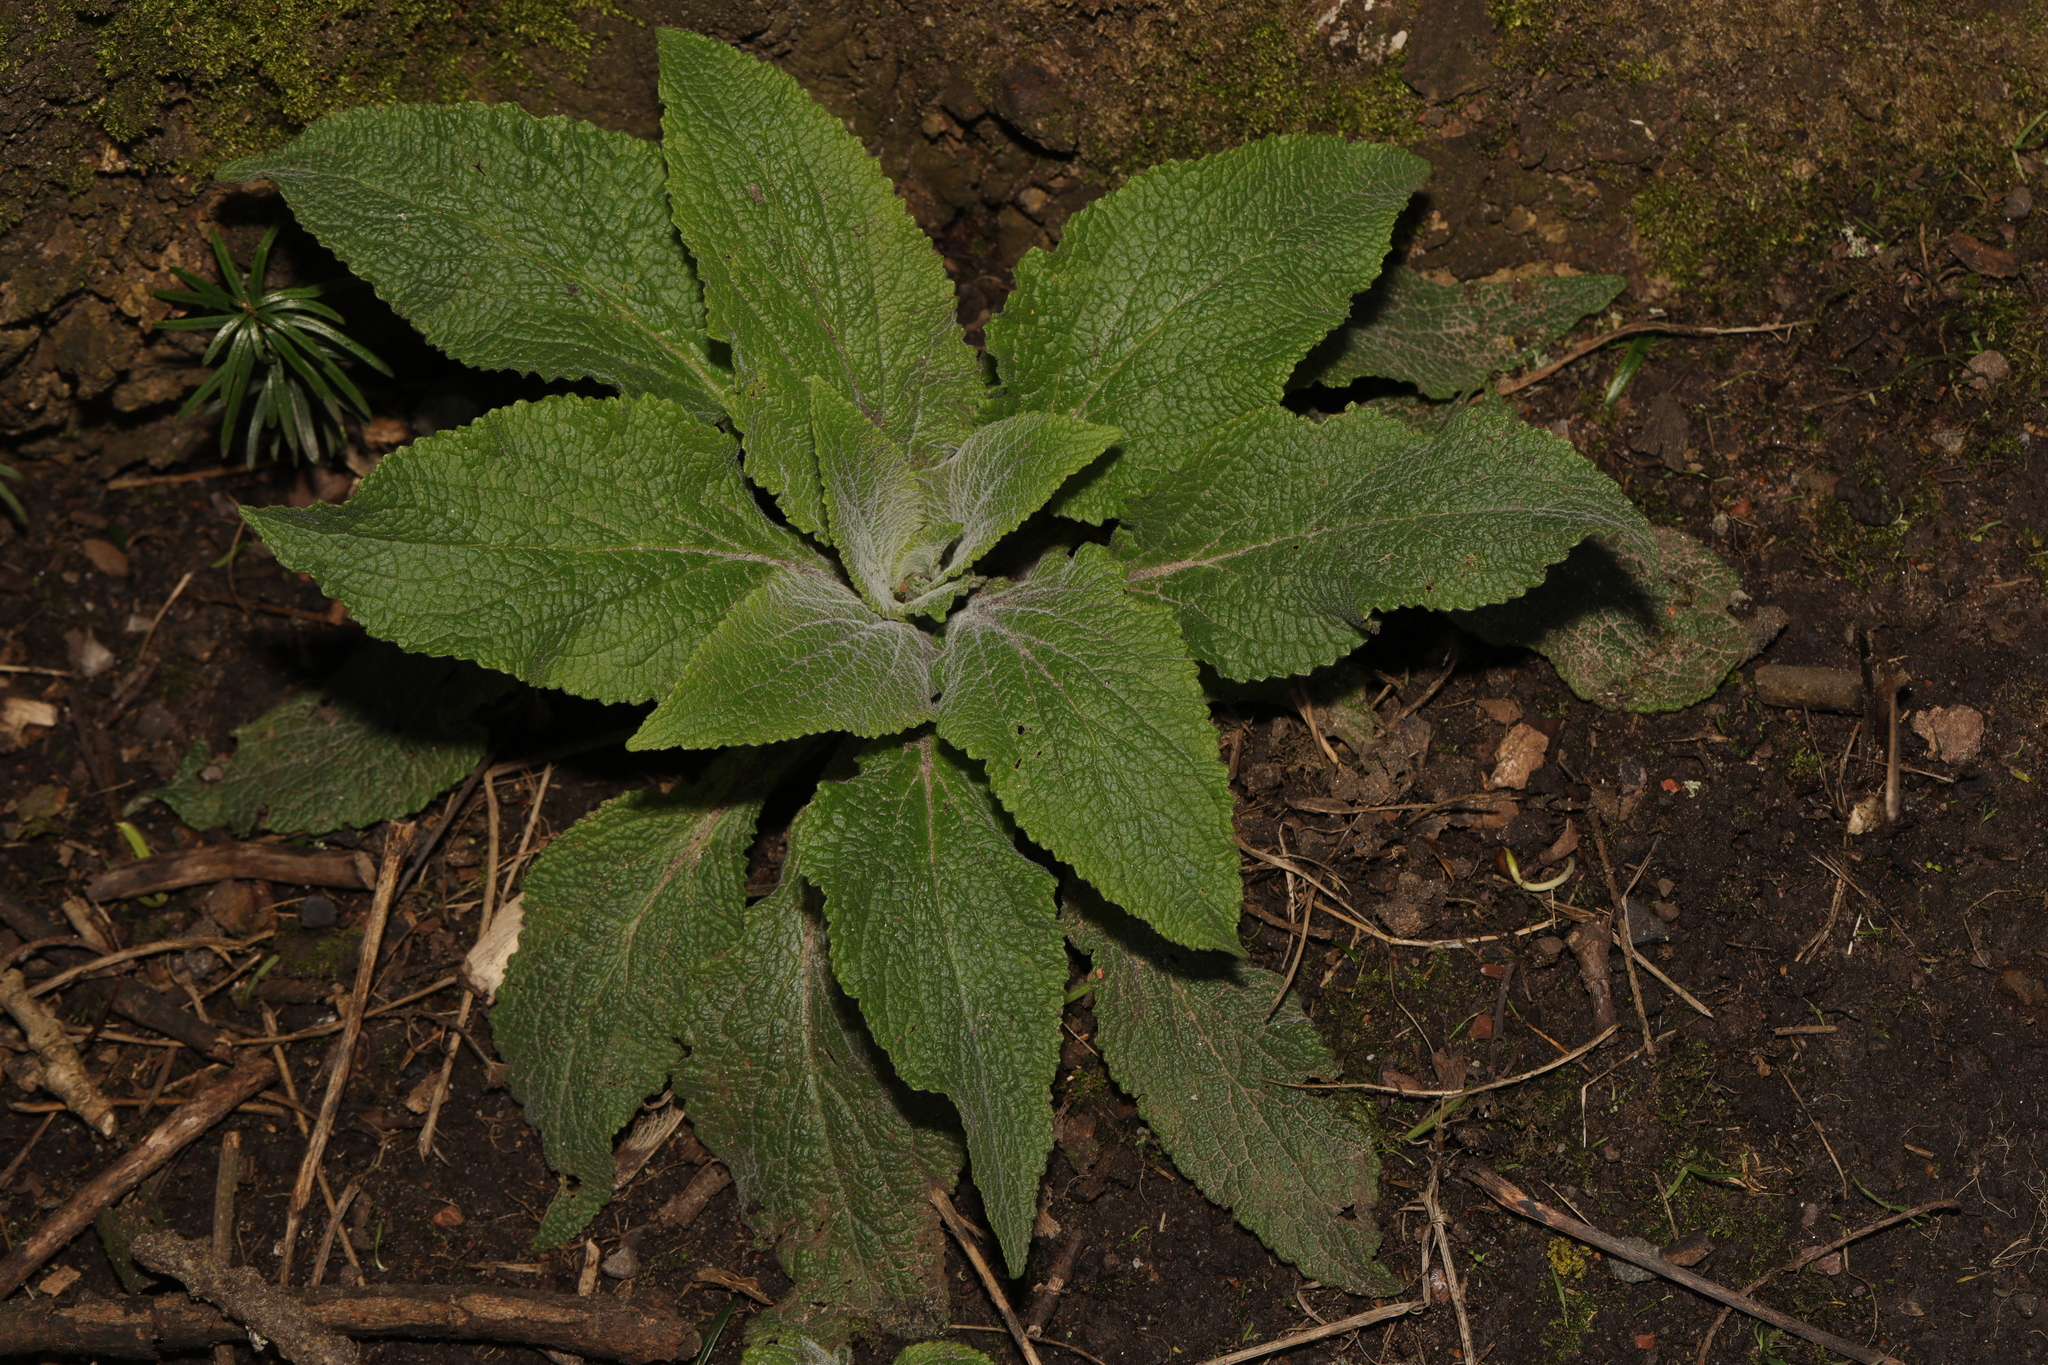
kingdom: Plantae
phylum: Tracheophyta
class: Magnoliopsida
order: Lamiales
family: Plantaginaceae
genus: Digitalis
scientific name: Digitalis purpurea
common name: Foxglove
